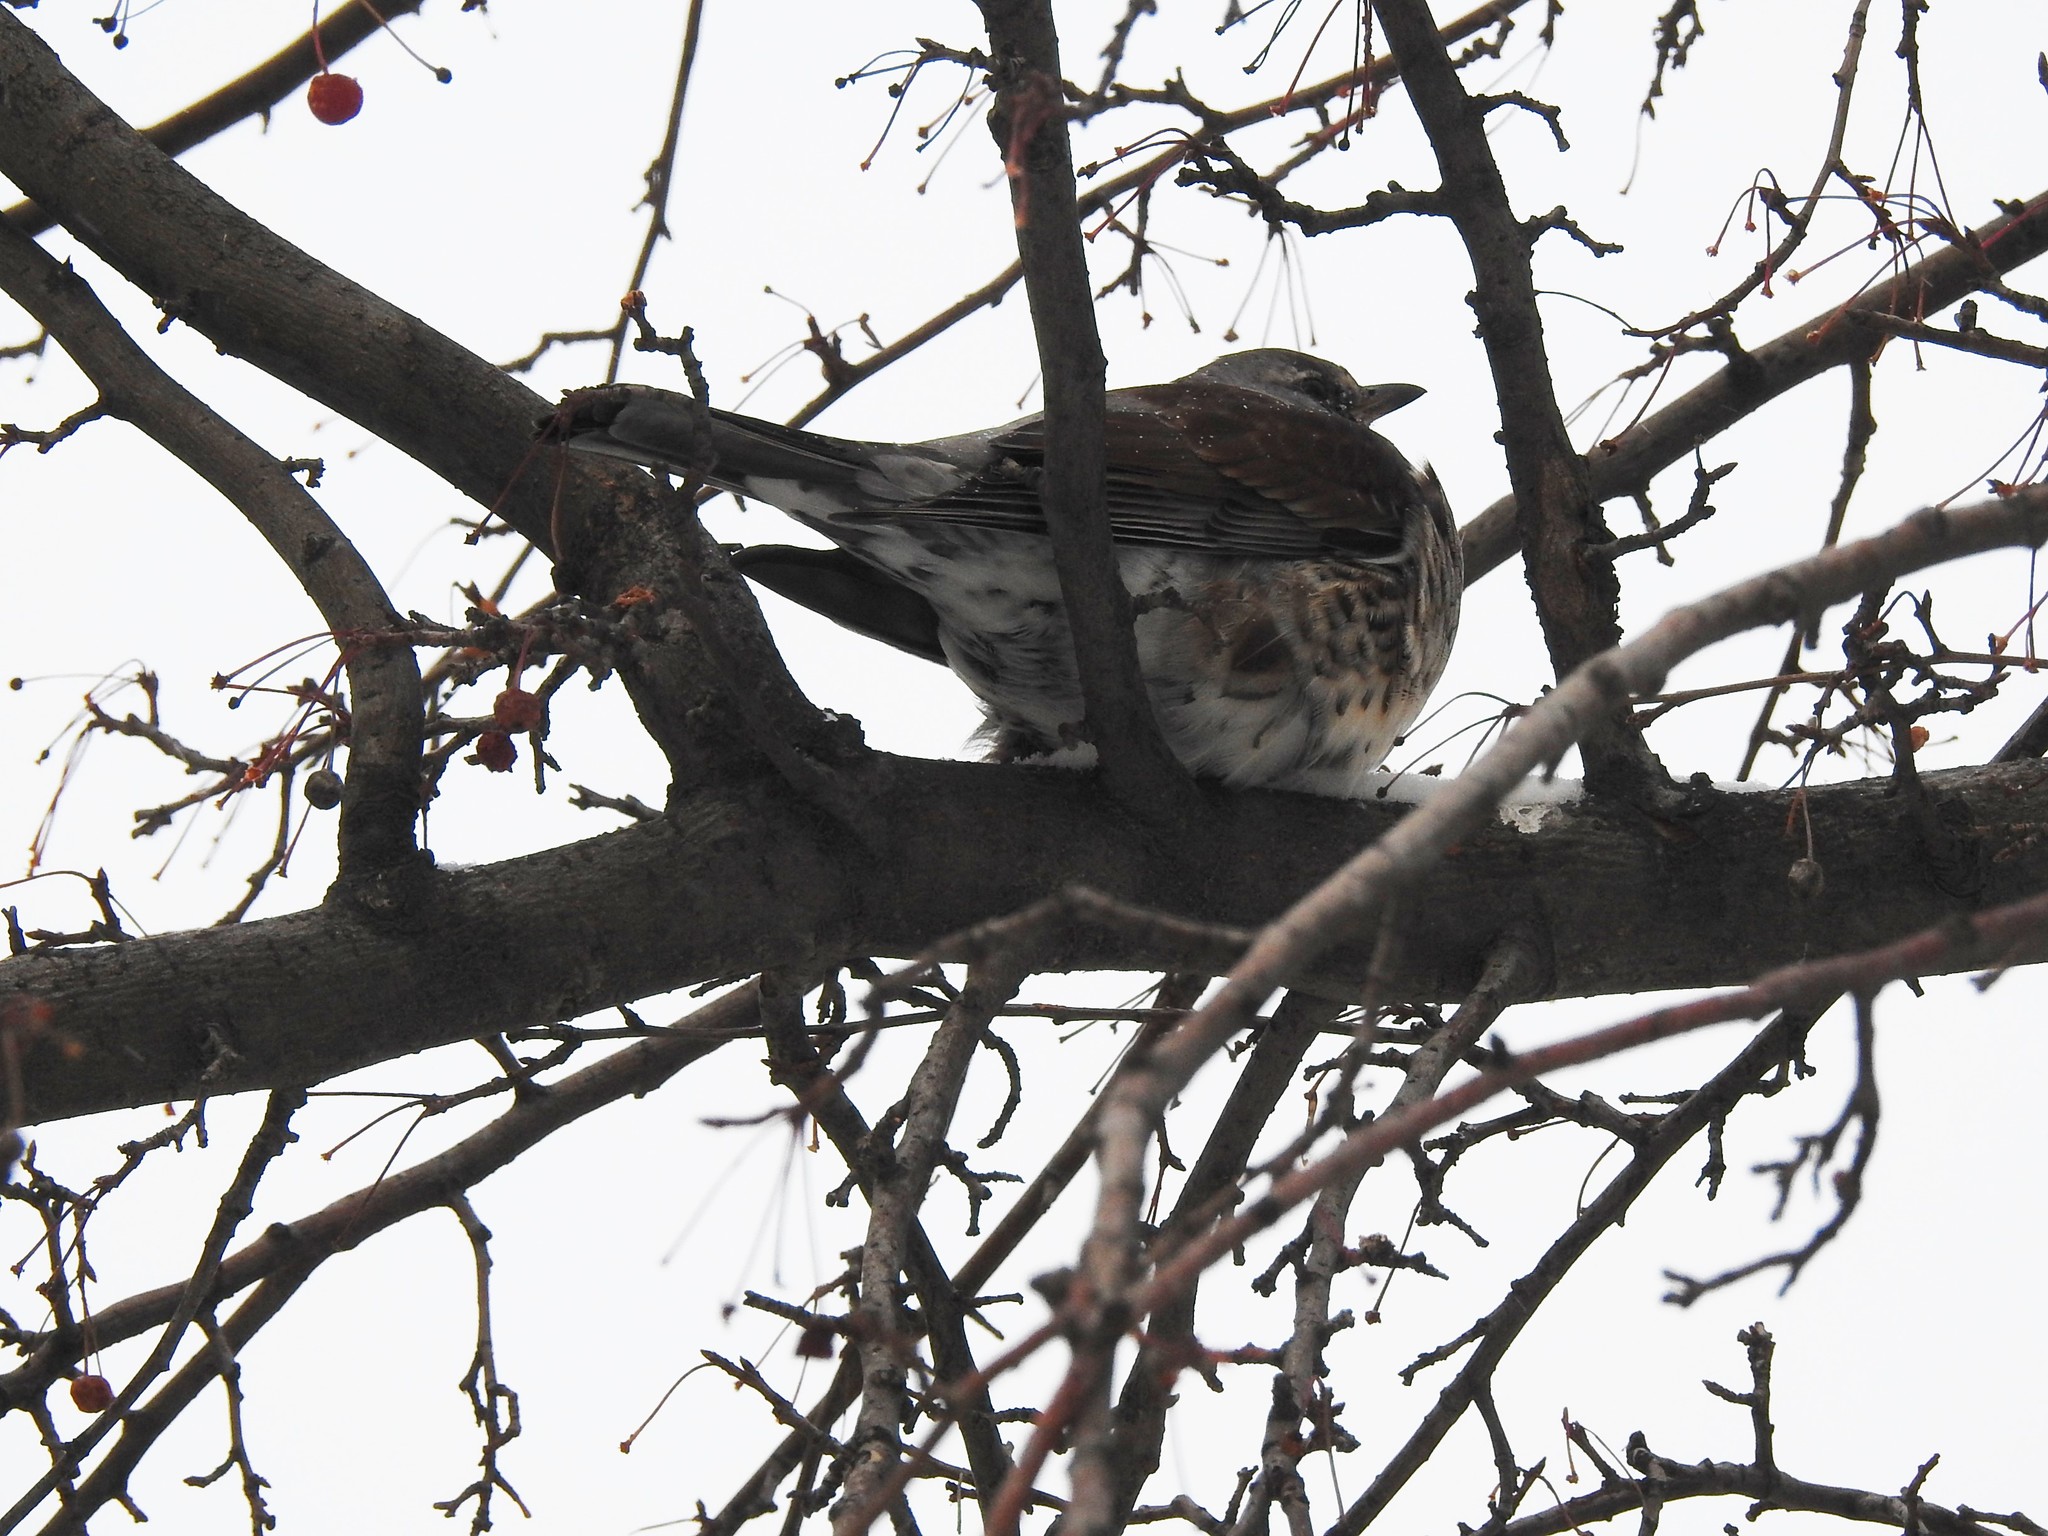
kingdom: Animalia
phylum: Chordata
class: Aves
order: Passeriformes
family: Turdidae
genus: Turdus
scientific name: Turdus pilaris
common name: Fieldfare
